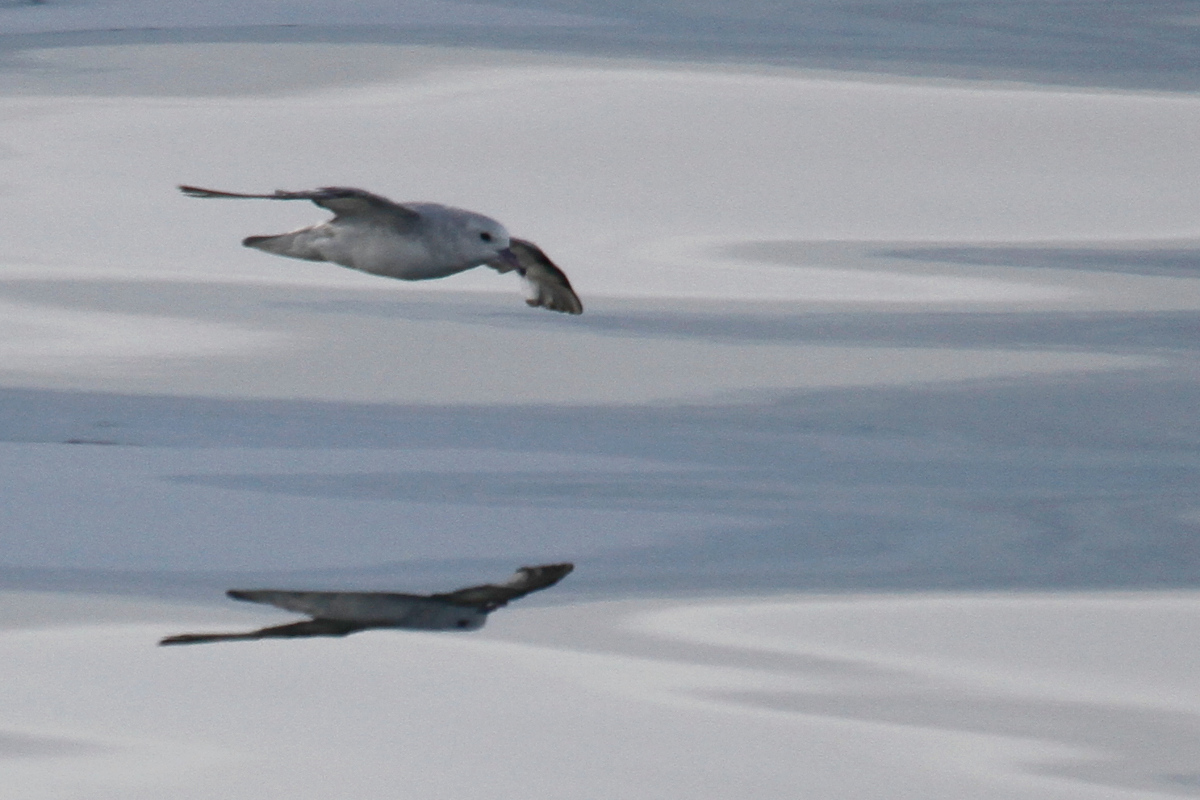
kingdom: Animalia
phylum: Chordata
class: Aves
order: Procellariiformes
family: Procellariidae
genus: Fulmarus
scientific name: Fulmarus glacialoides
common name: Southern fulmar
